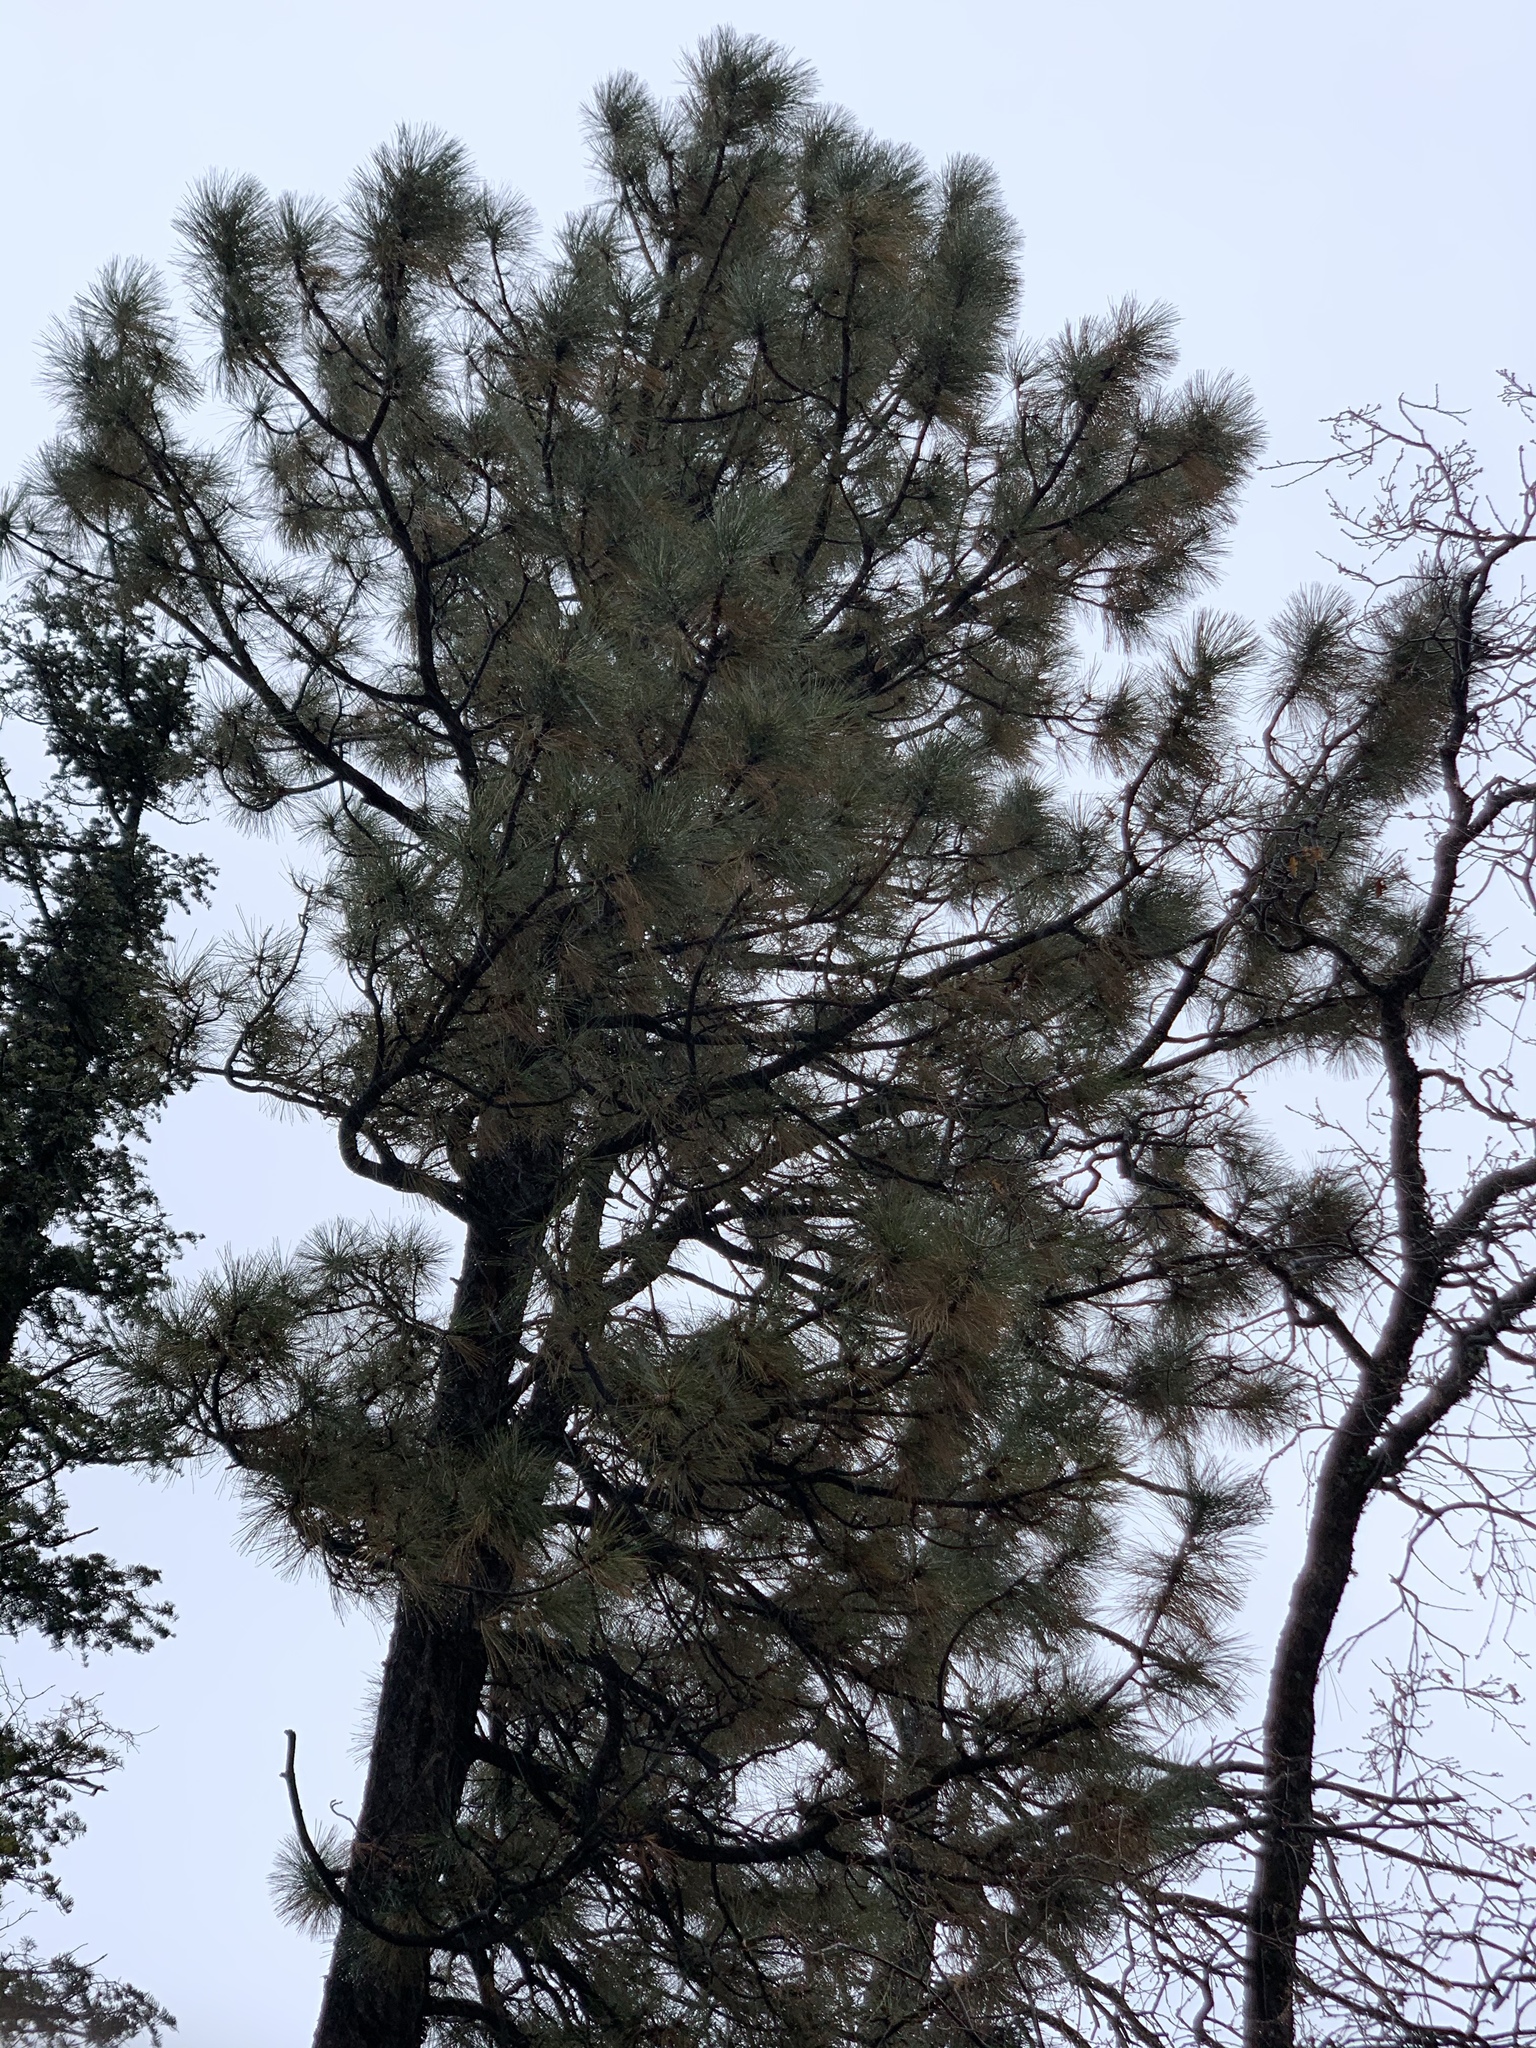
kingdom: Plantae
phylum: Tracheophyta
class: Pinopsida
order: Pinales
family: Pinaceae
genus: Pinus
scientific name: Pinus ponderosa
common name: Western yellow-pine
